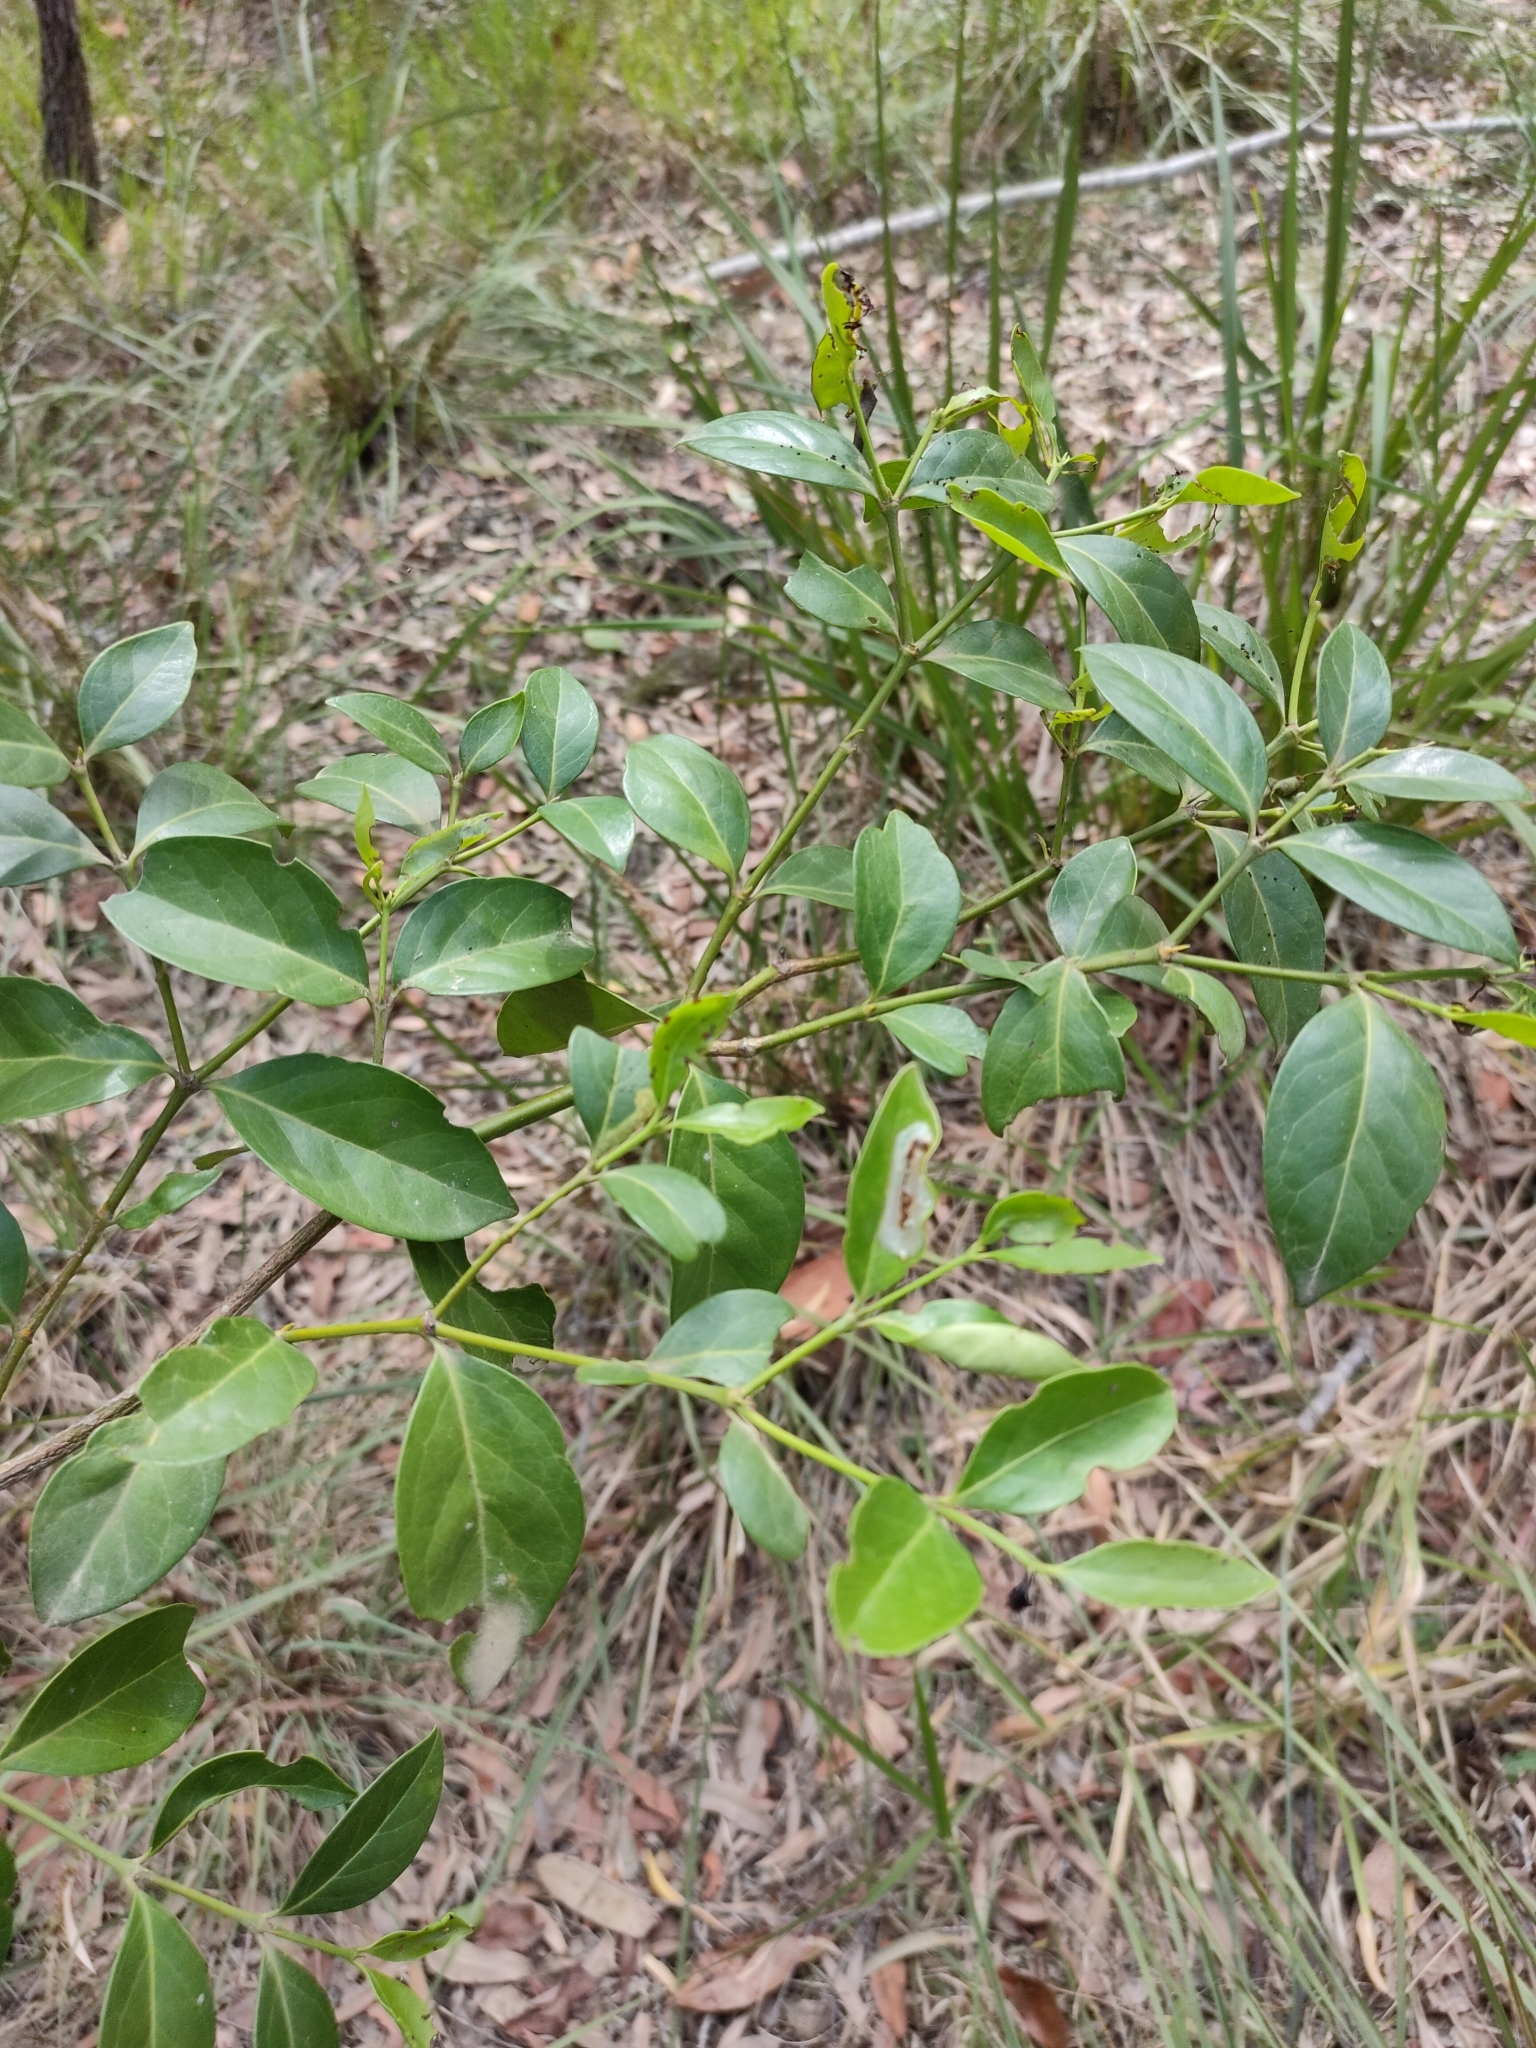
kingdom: Plantae
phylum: Tracheophyta
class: Magnoliopsida
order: Gentianales
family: Rubiaceae
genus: Psydrax
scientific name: Psydrax odoratus
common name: Alahe'e
